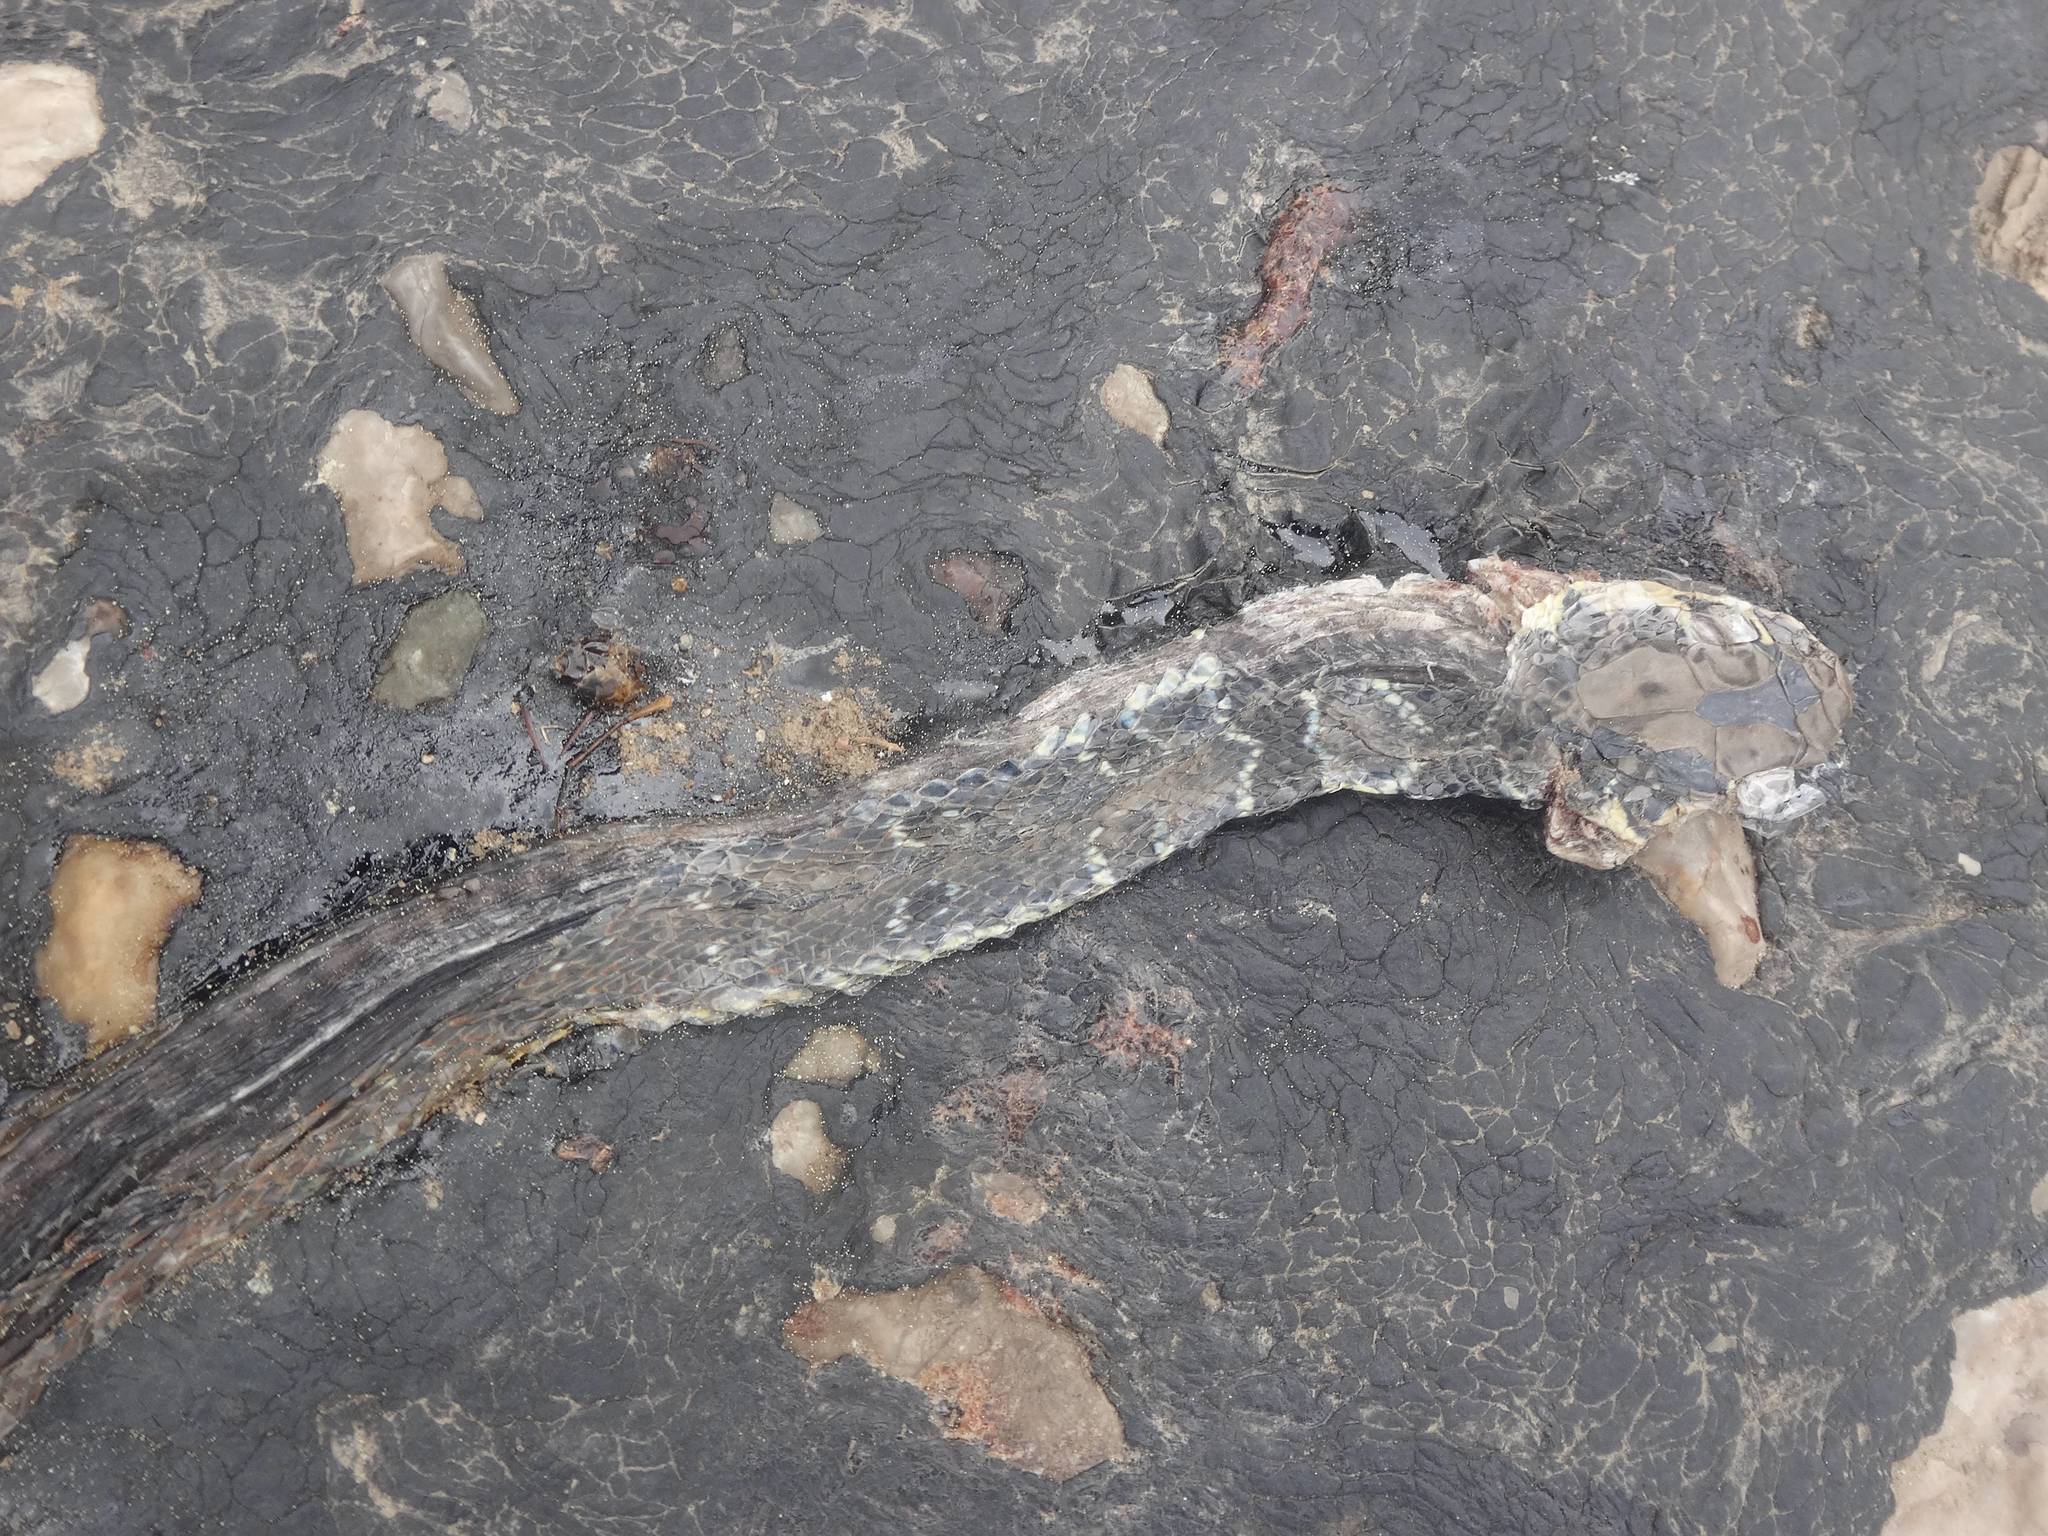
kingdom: Animalia
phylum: Chordata
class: Squamata
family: Colubridae
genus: Platyceps
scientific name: Platyceps najadum
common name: Dahl's whip snake
